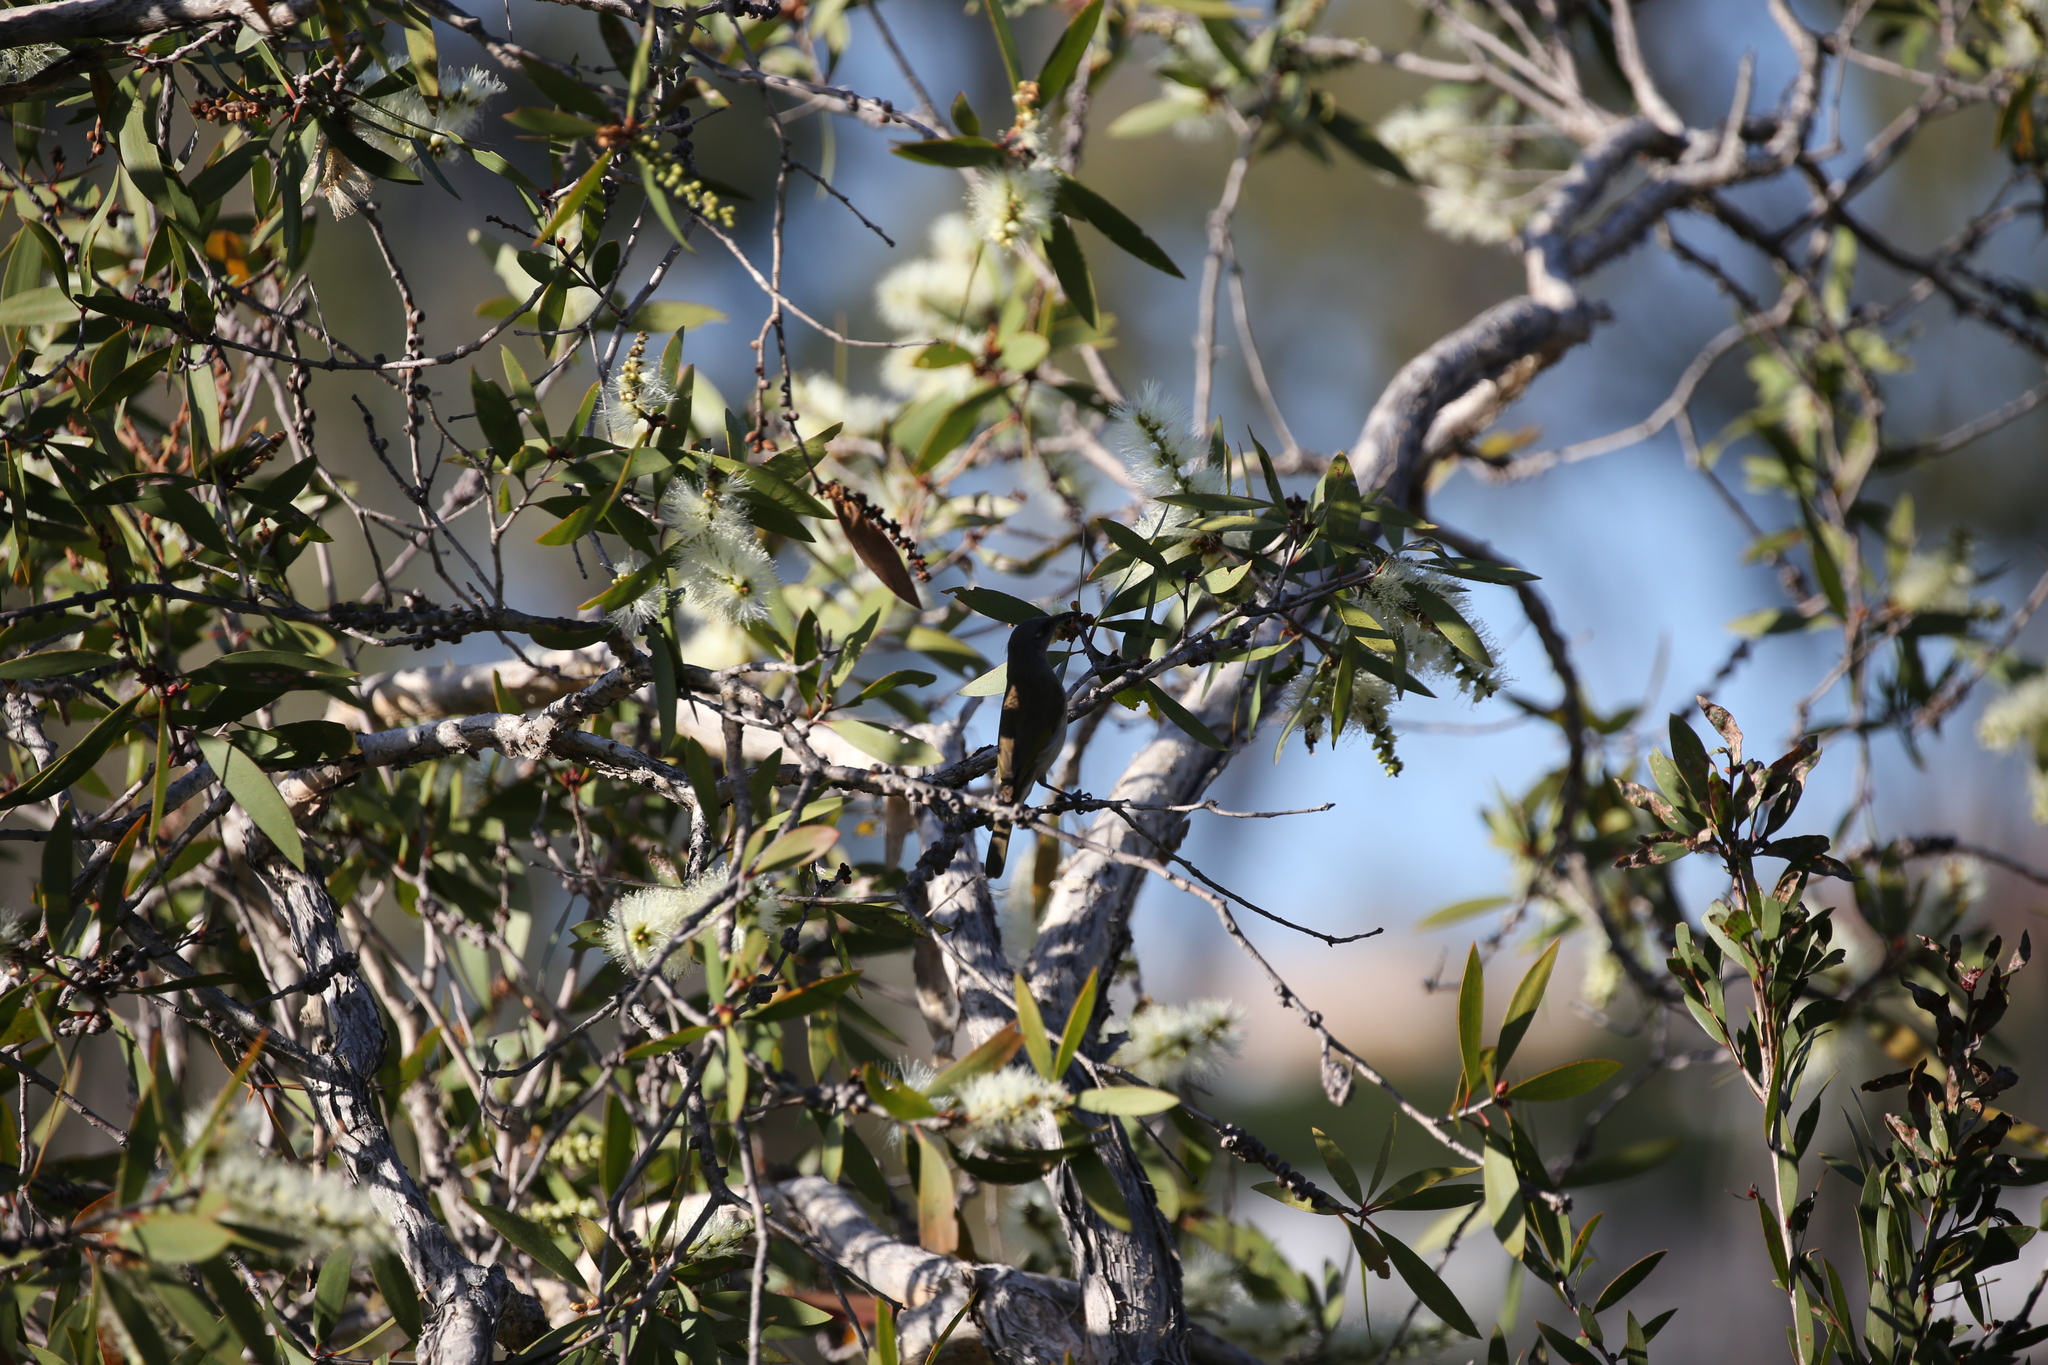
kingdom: Animalia
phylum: Chordata
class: Aves
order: Passeriformes
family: Meliphagidae
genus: Lichmera
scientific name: Lichmera indistincta
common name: Brown honeyeater
